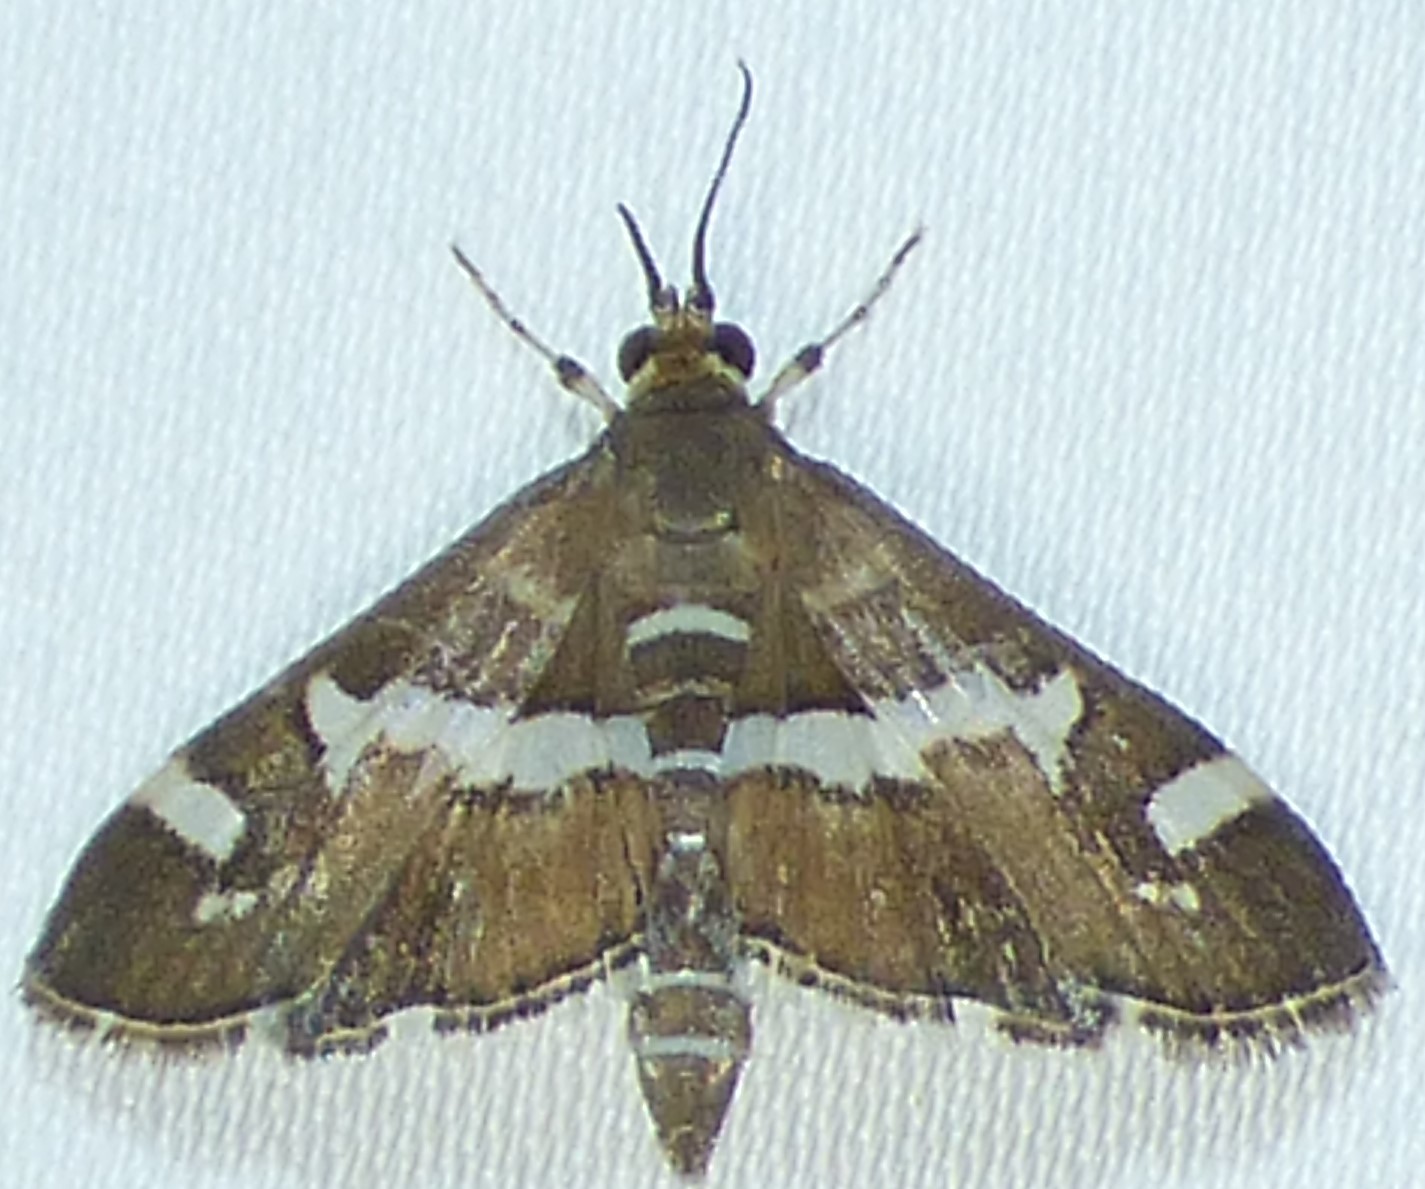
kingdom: Animalia
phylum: Arthropoda
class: Insecta
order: Lepidoptera
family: Crambidae
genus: Spoladea
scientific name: Spoladea recurvalis
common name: Beet webworm moth
